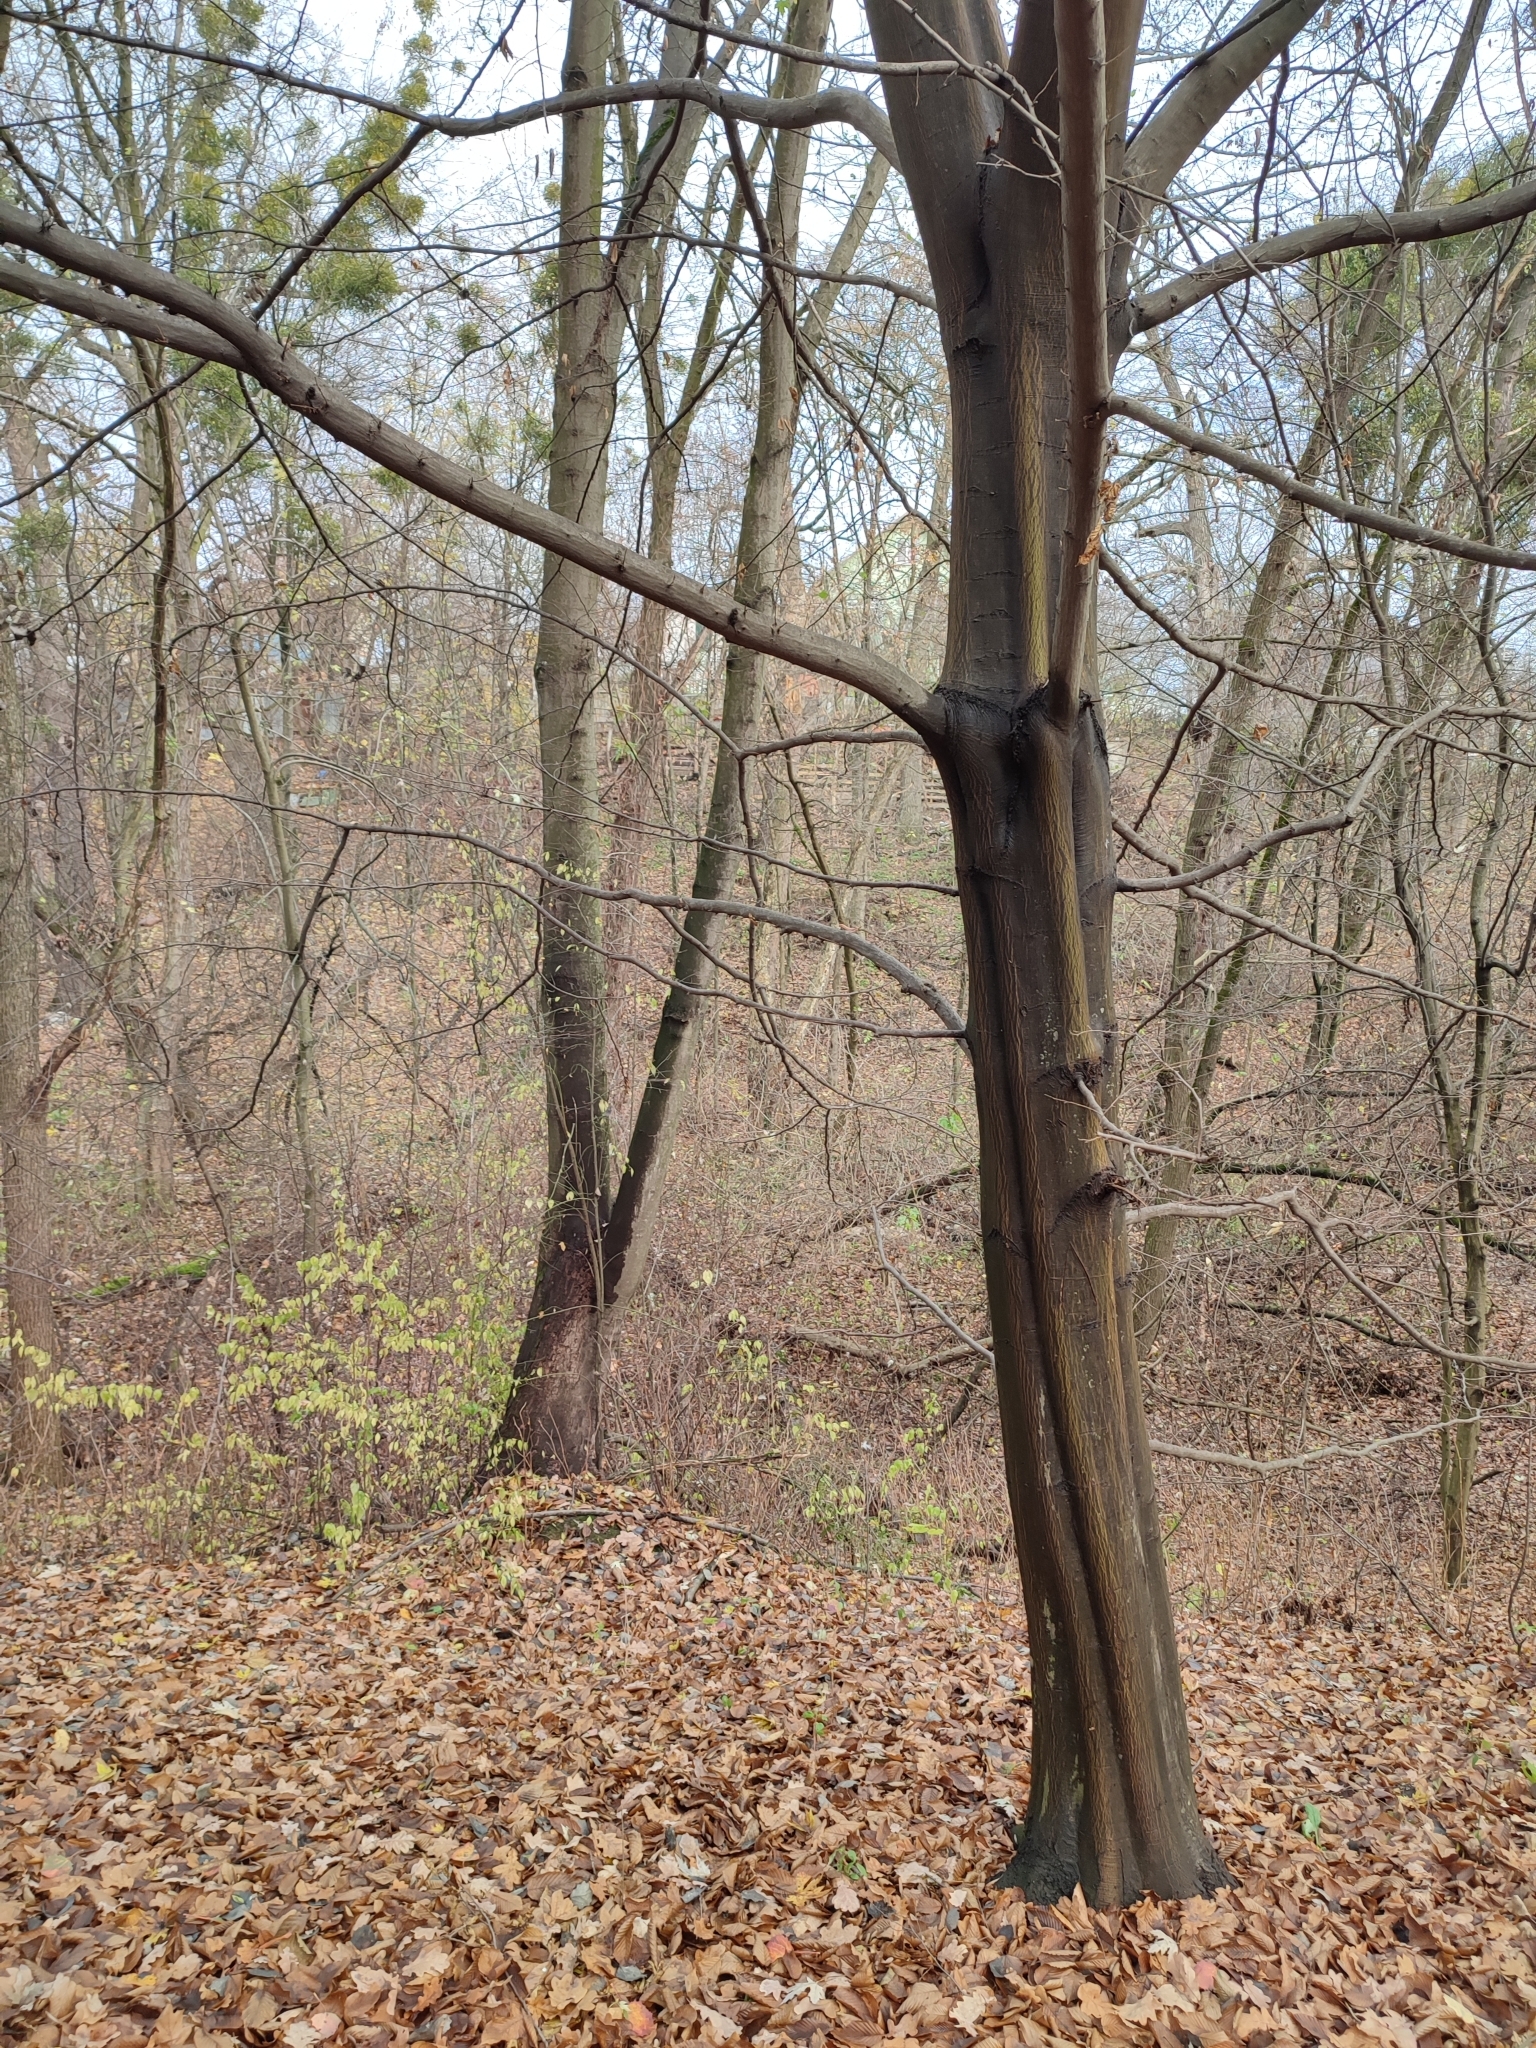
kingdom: Plantae
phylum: Tracheophyta
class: Magnoliopsida
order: Fagales
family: Betulaceae
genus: Carpinus
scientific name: Carpinus betulus
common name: Hornbeam
